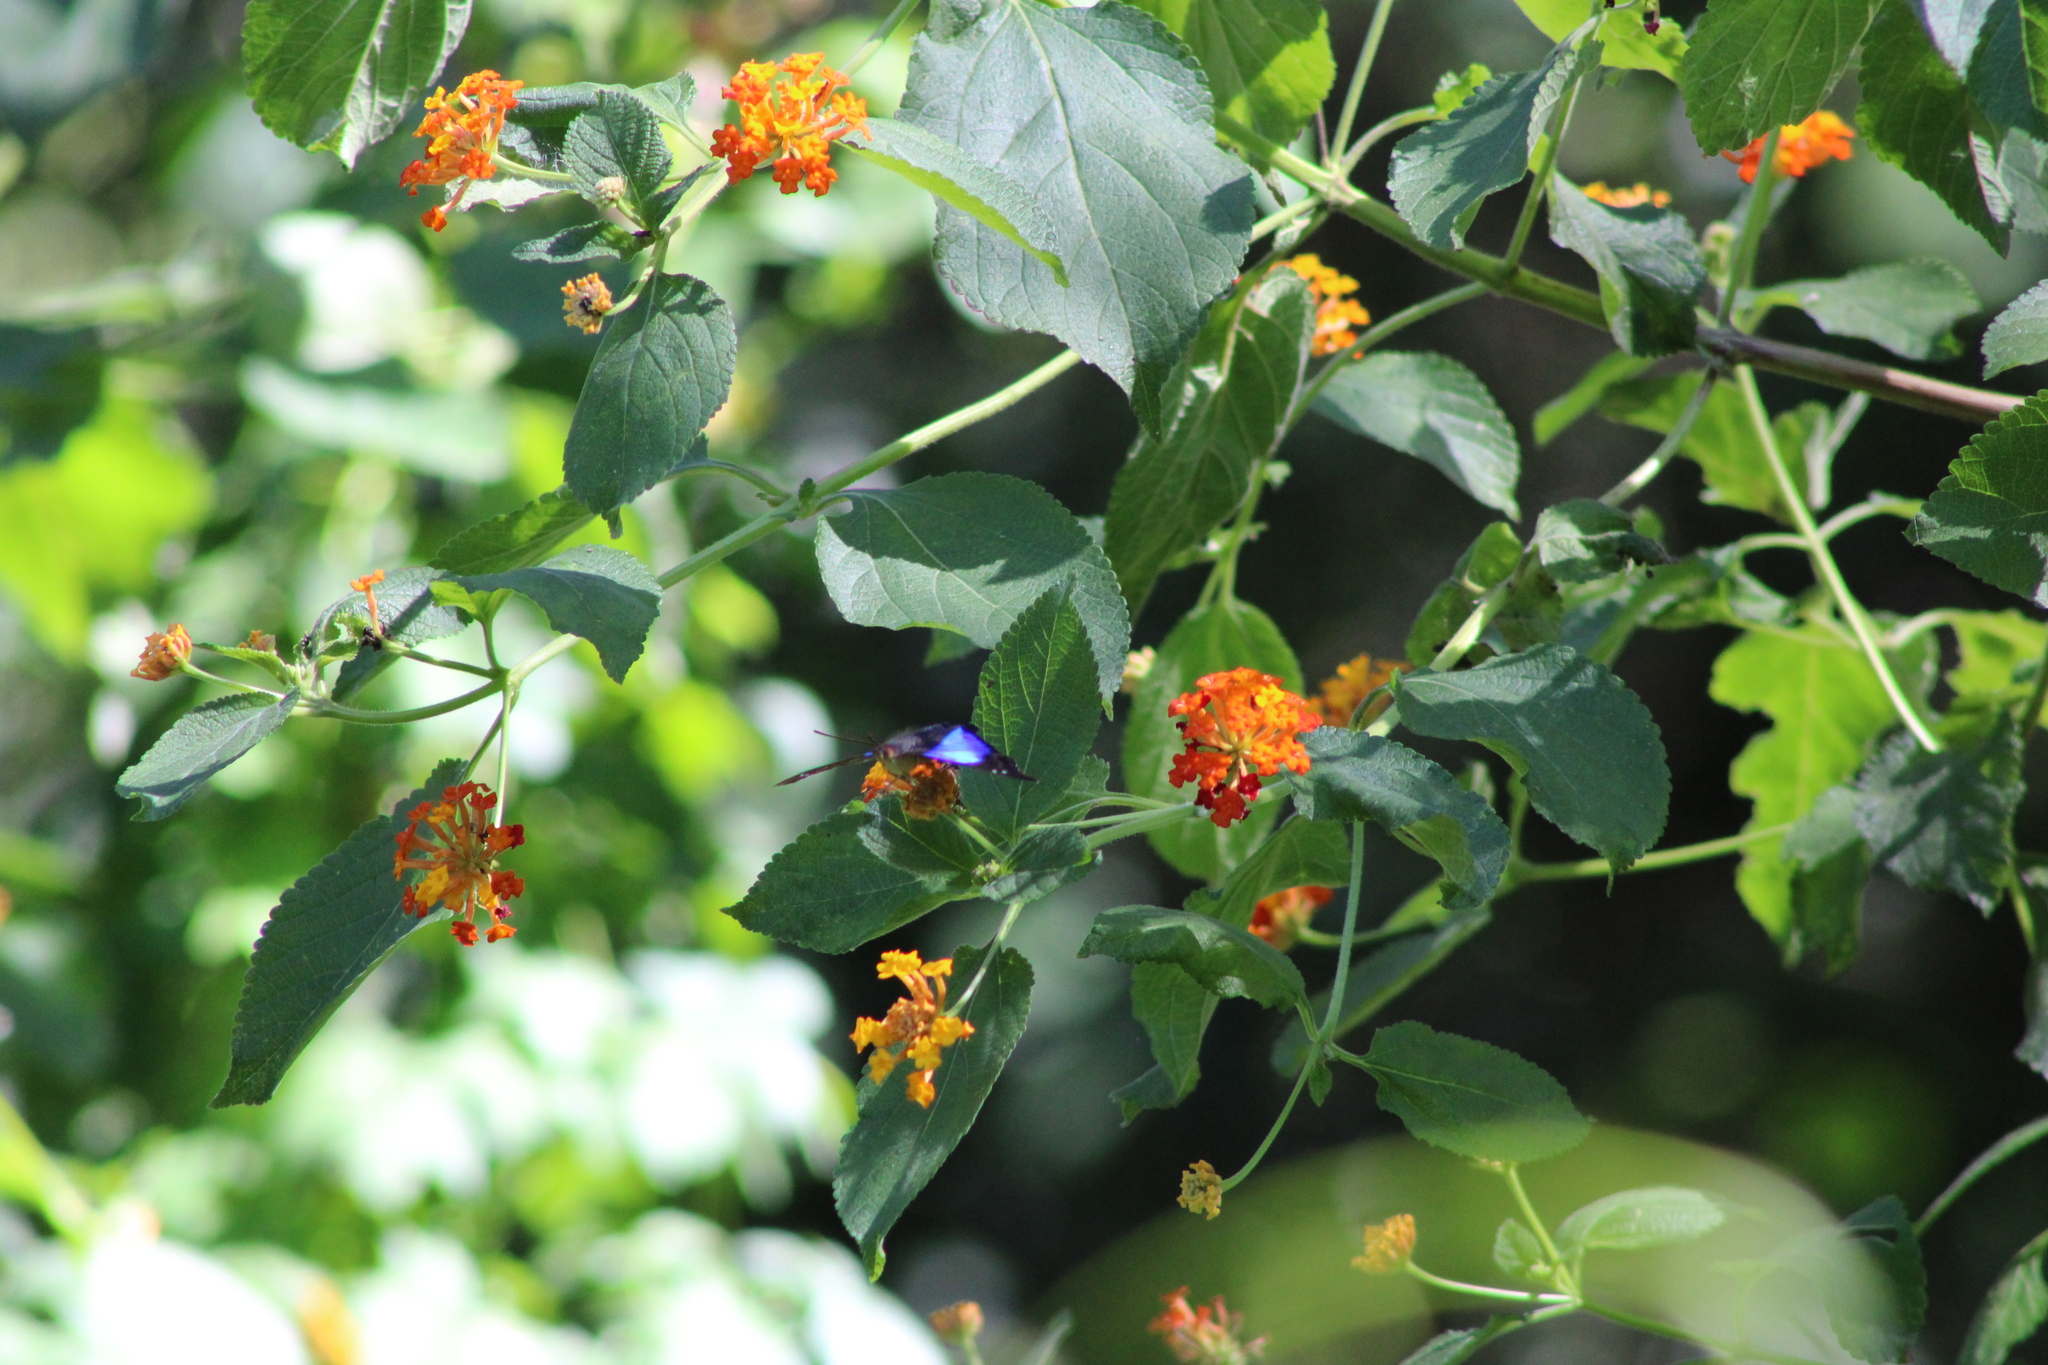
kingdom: Animalia
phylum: Arthropoda
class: Insecta
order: Lepidoptera
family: Nymphalidae
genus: Doxocopa
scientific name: Doxocopa laurentia
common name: Turquoise emperor
